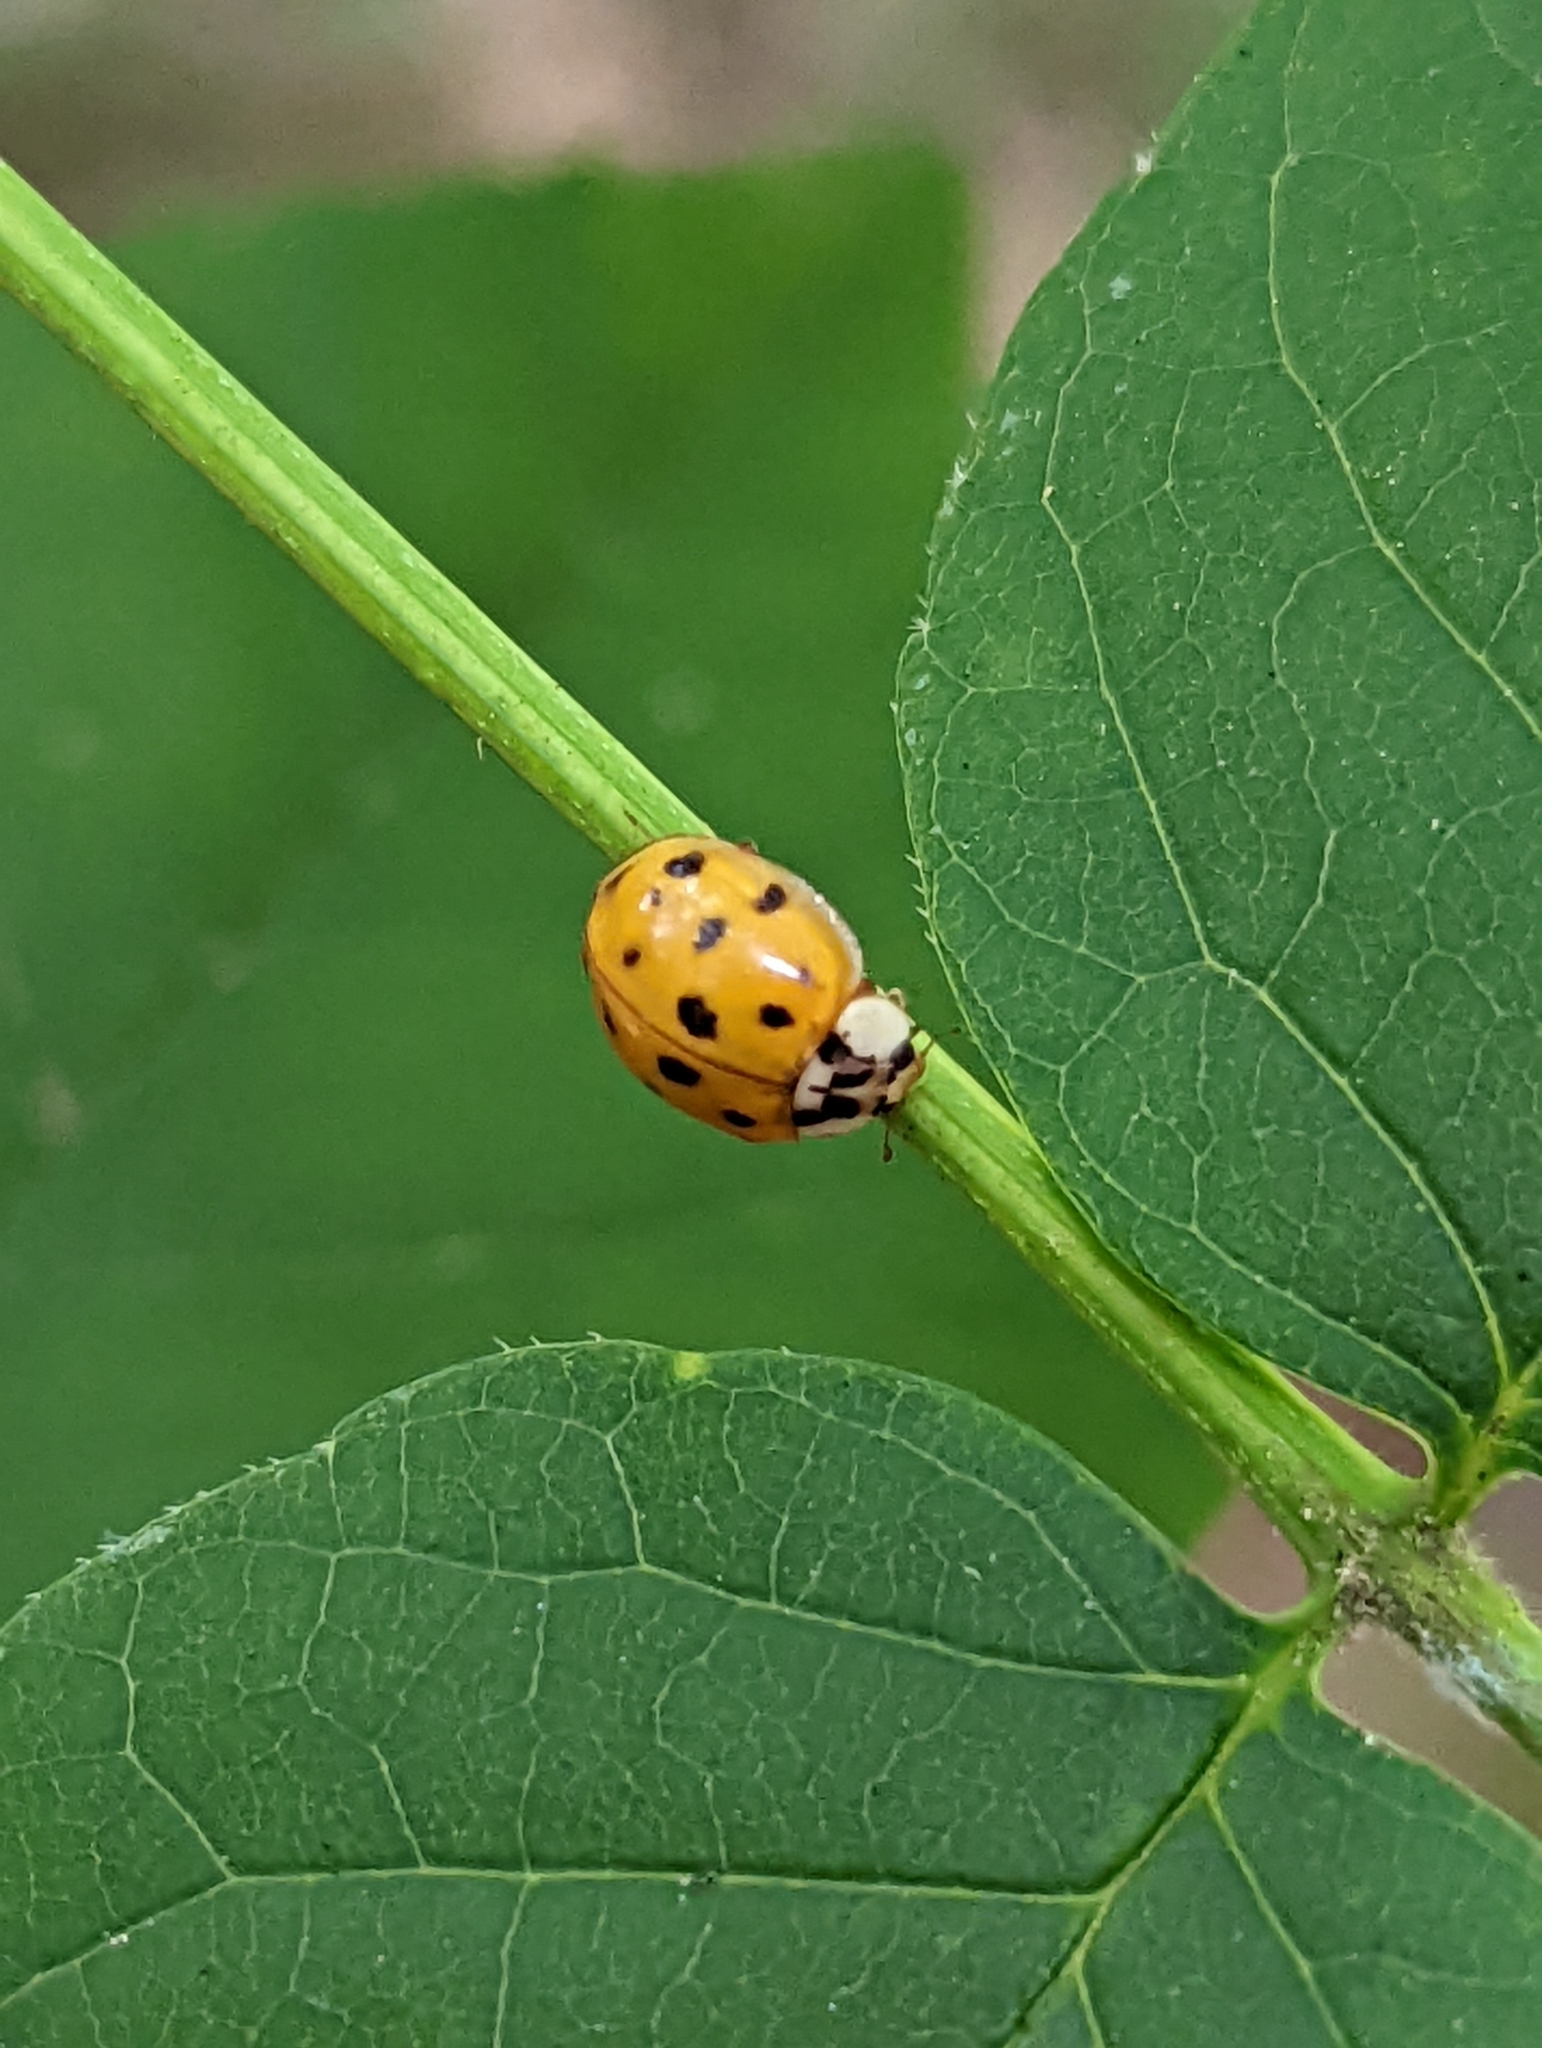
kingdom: Animalia
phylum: Arthropoda
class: Insecta
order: Coleoptera
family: Coccinellidae
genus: Harmonia
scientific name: Harmonia axyridis
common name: Harlequin ladybird
